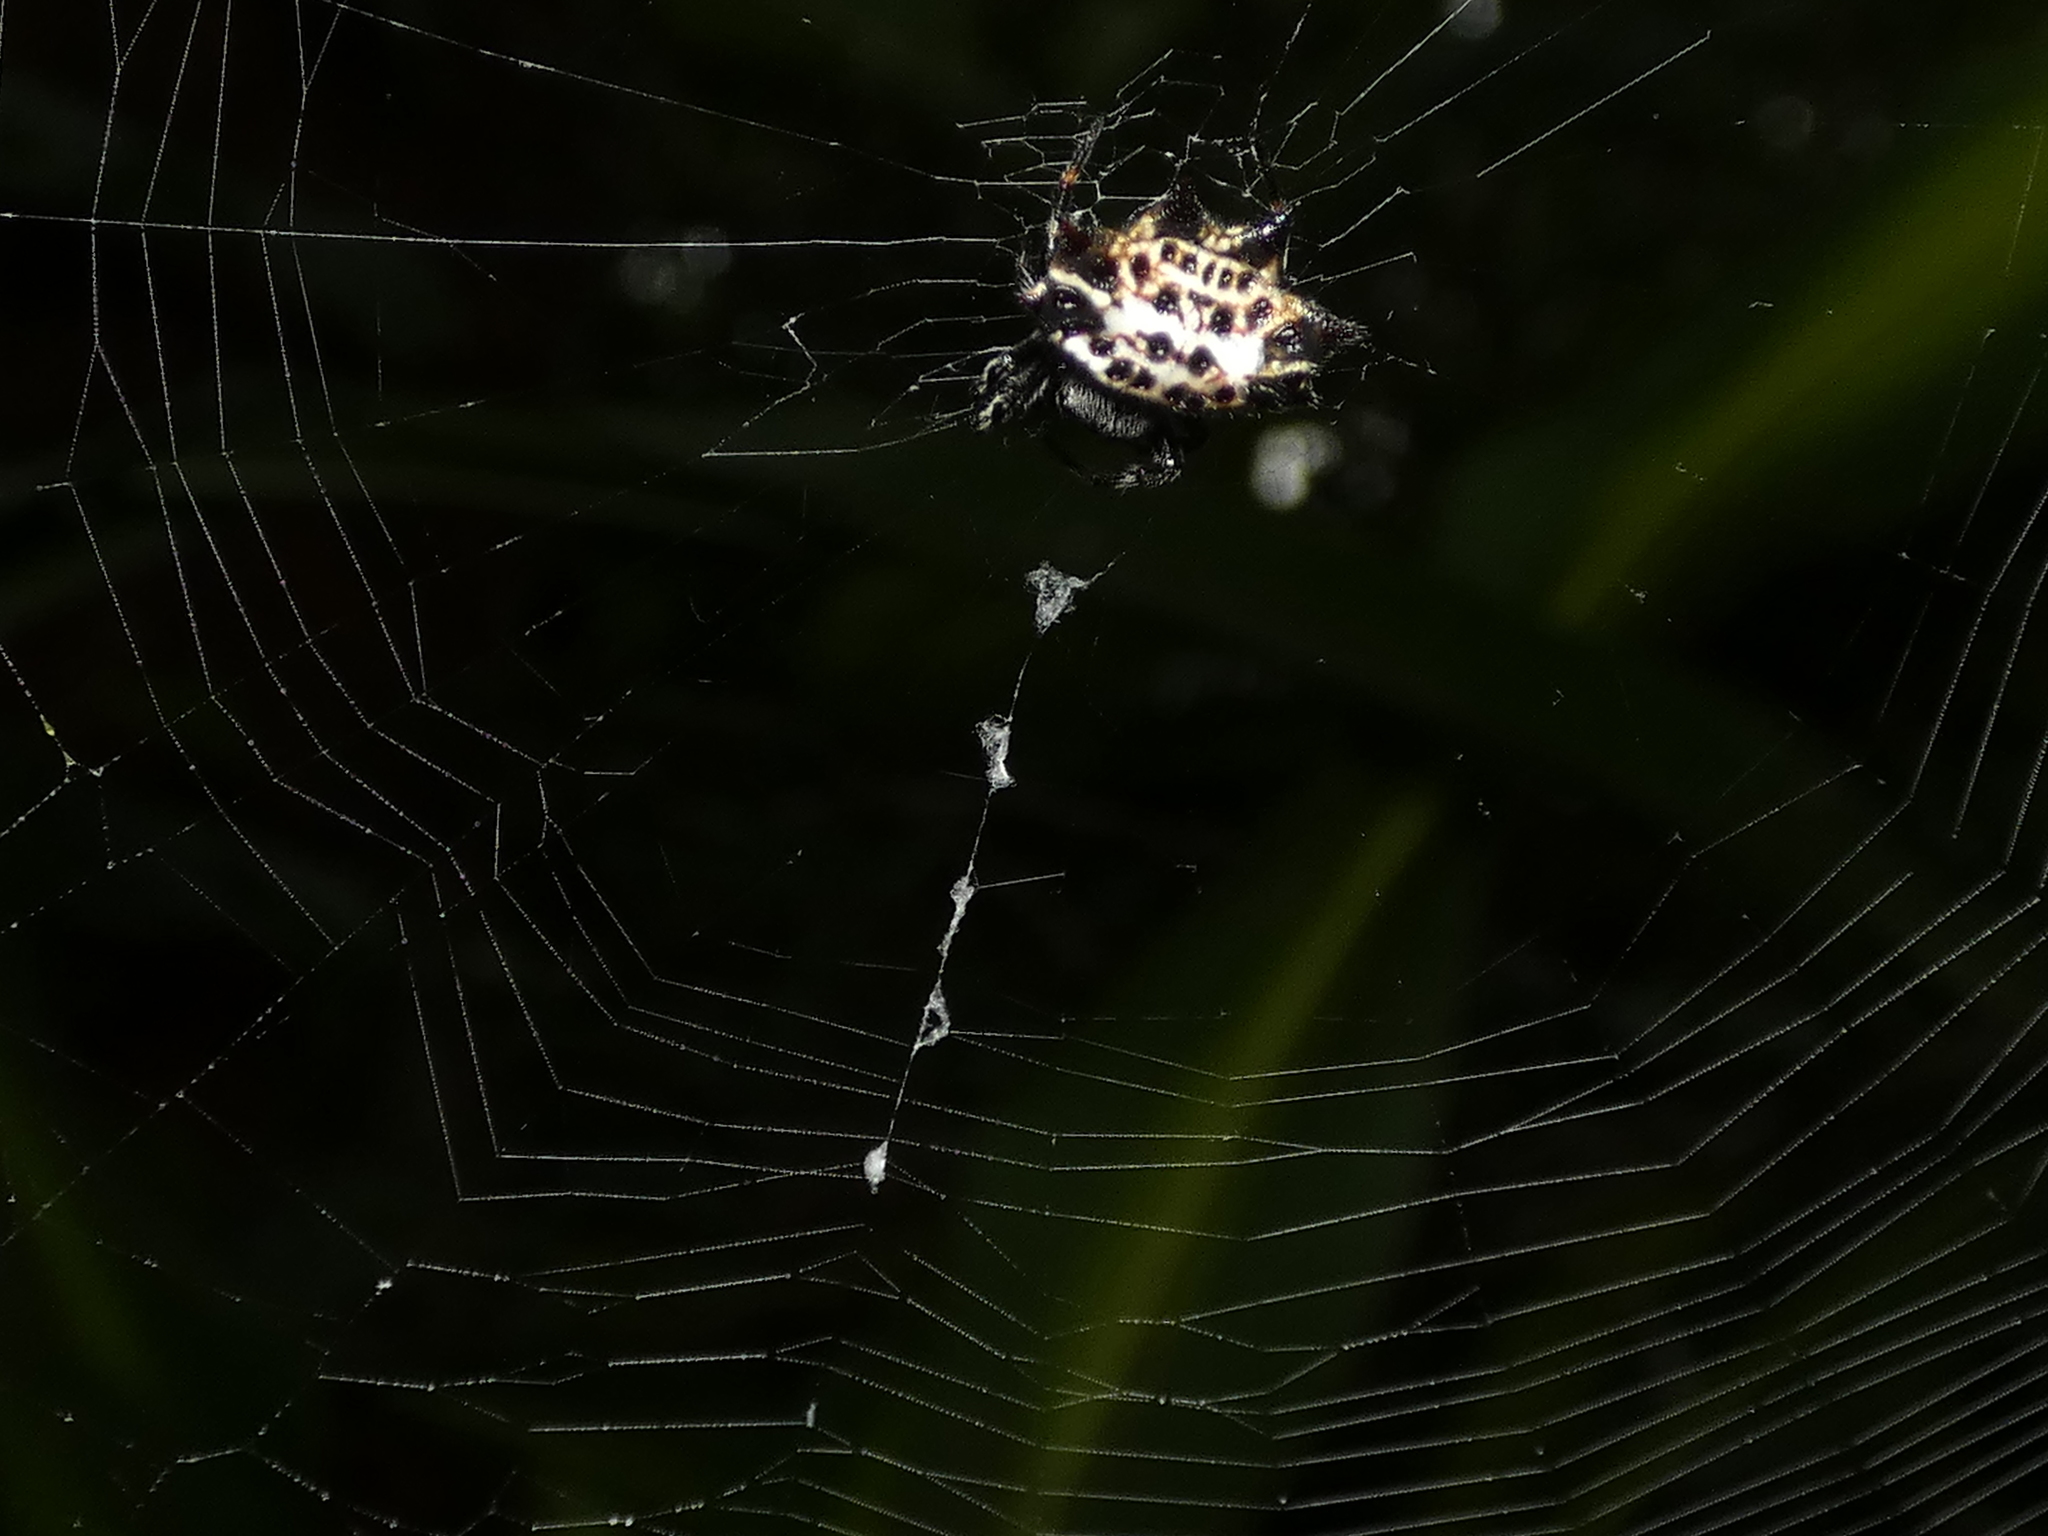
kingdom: Animalia
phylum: Arthropoda
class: Arachnida
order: Araneae
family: Araneidae
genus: Gasteracantha
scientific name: Gasteracantha cancriformis
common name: Orb weavers
